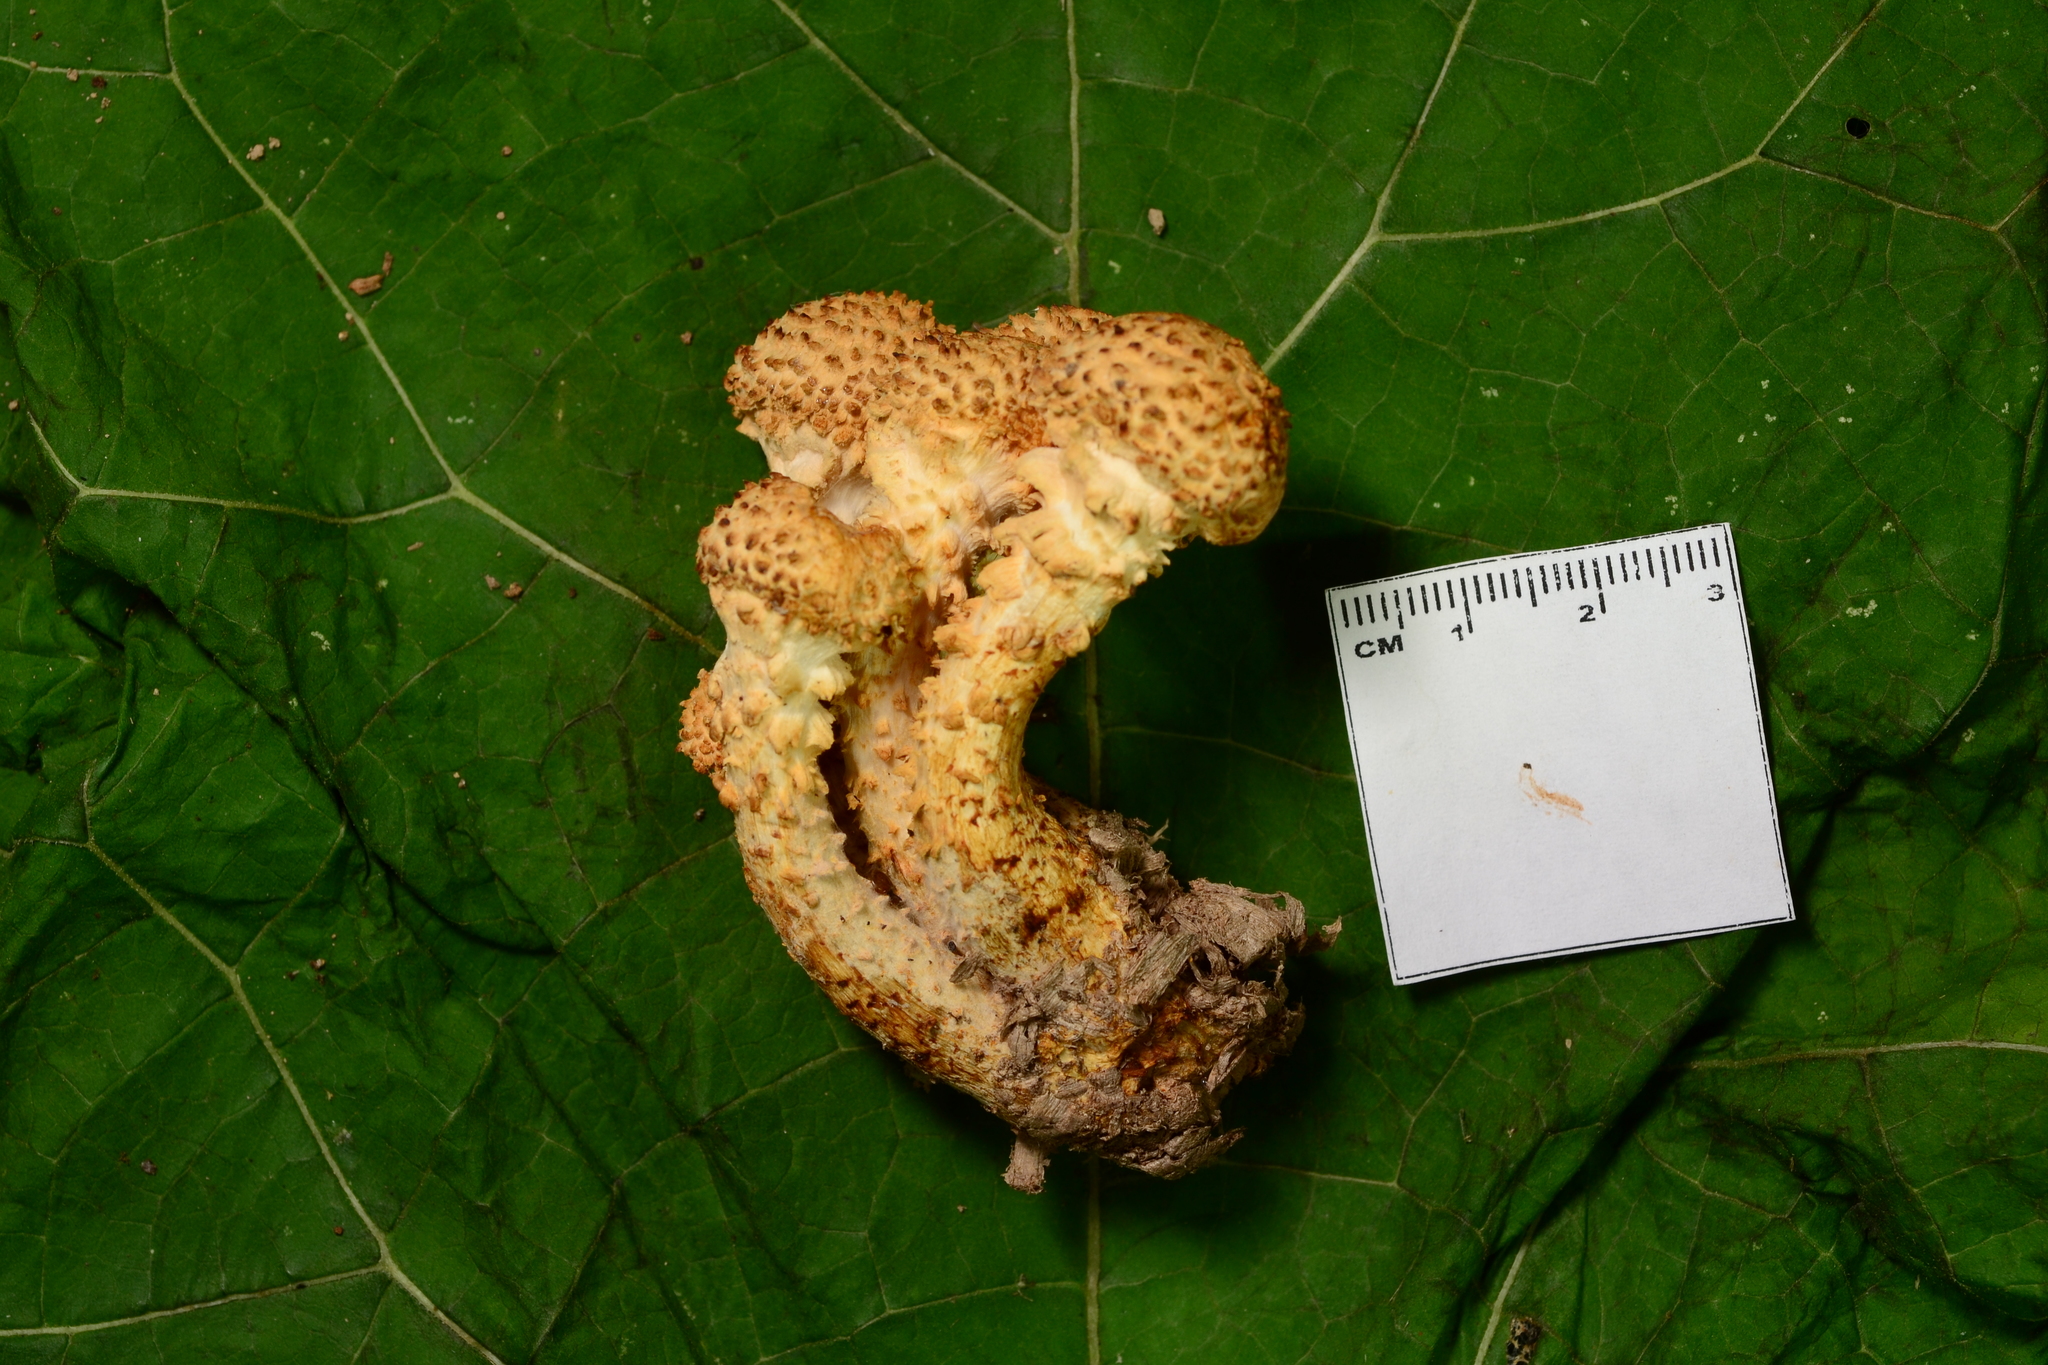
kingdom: Fungi
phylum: Basidiomycota
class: Agaricomycetes
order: Agaricales
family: Strophariaceae
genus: Pholiota
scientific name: Pholiota squarrosa
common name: Shaggy pholiota
